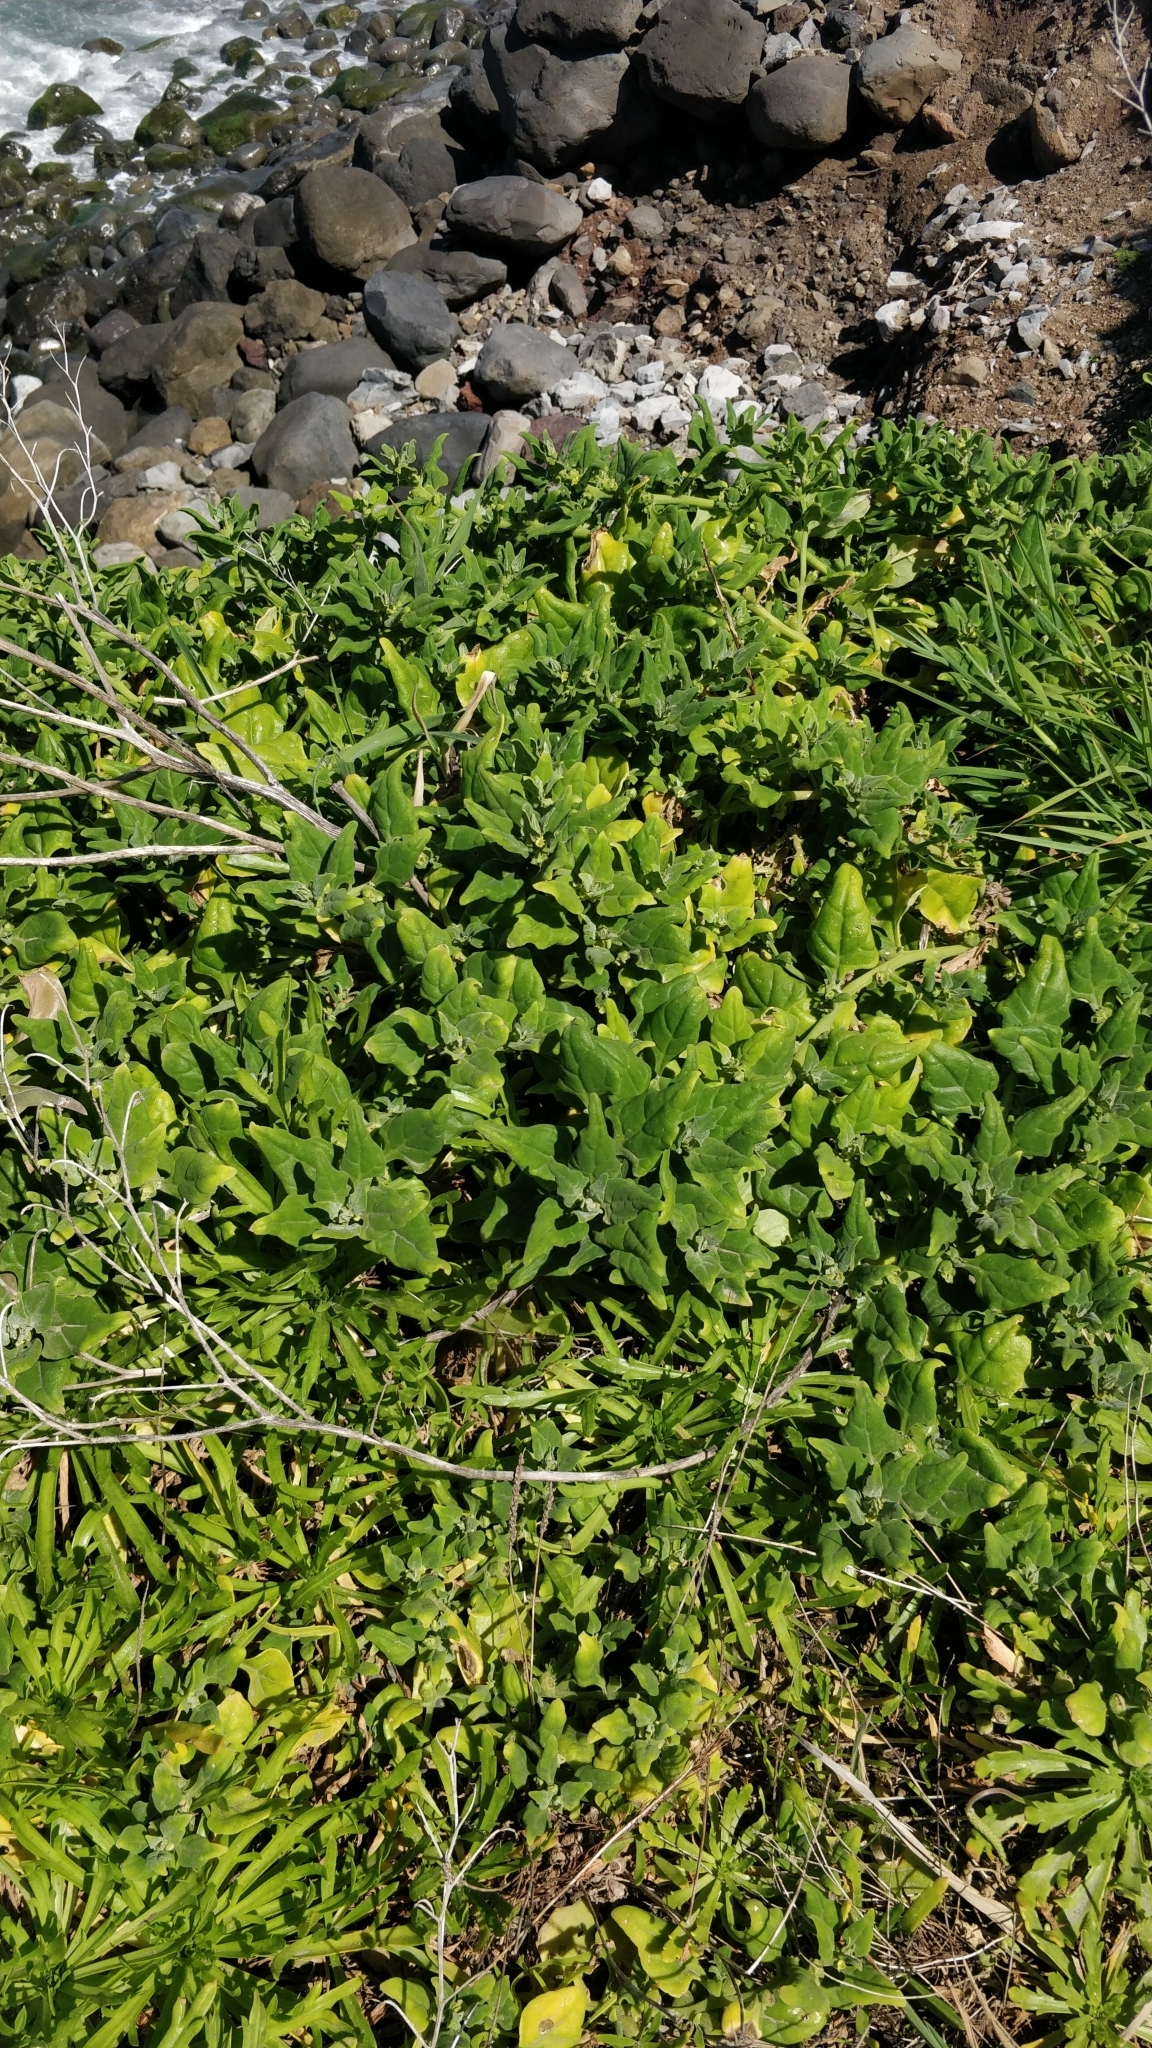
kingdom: Plantae
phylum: Tracheophyta
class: Magnoliopsida
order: Caryophyllales
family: Aizoaceae
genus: Tetragonia
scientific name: Tetragonia tetragonoides
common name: New zealand-spinach
